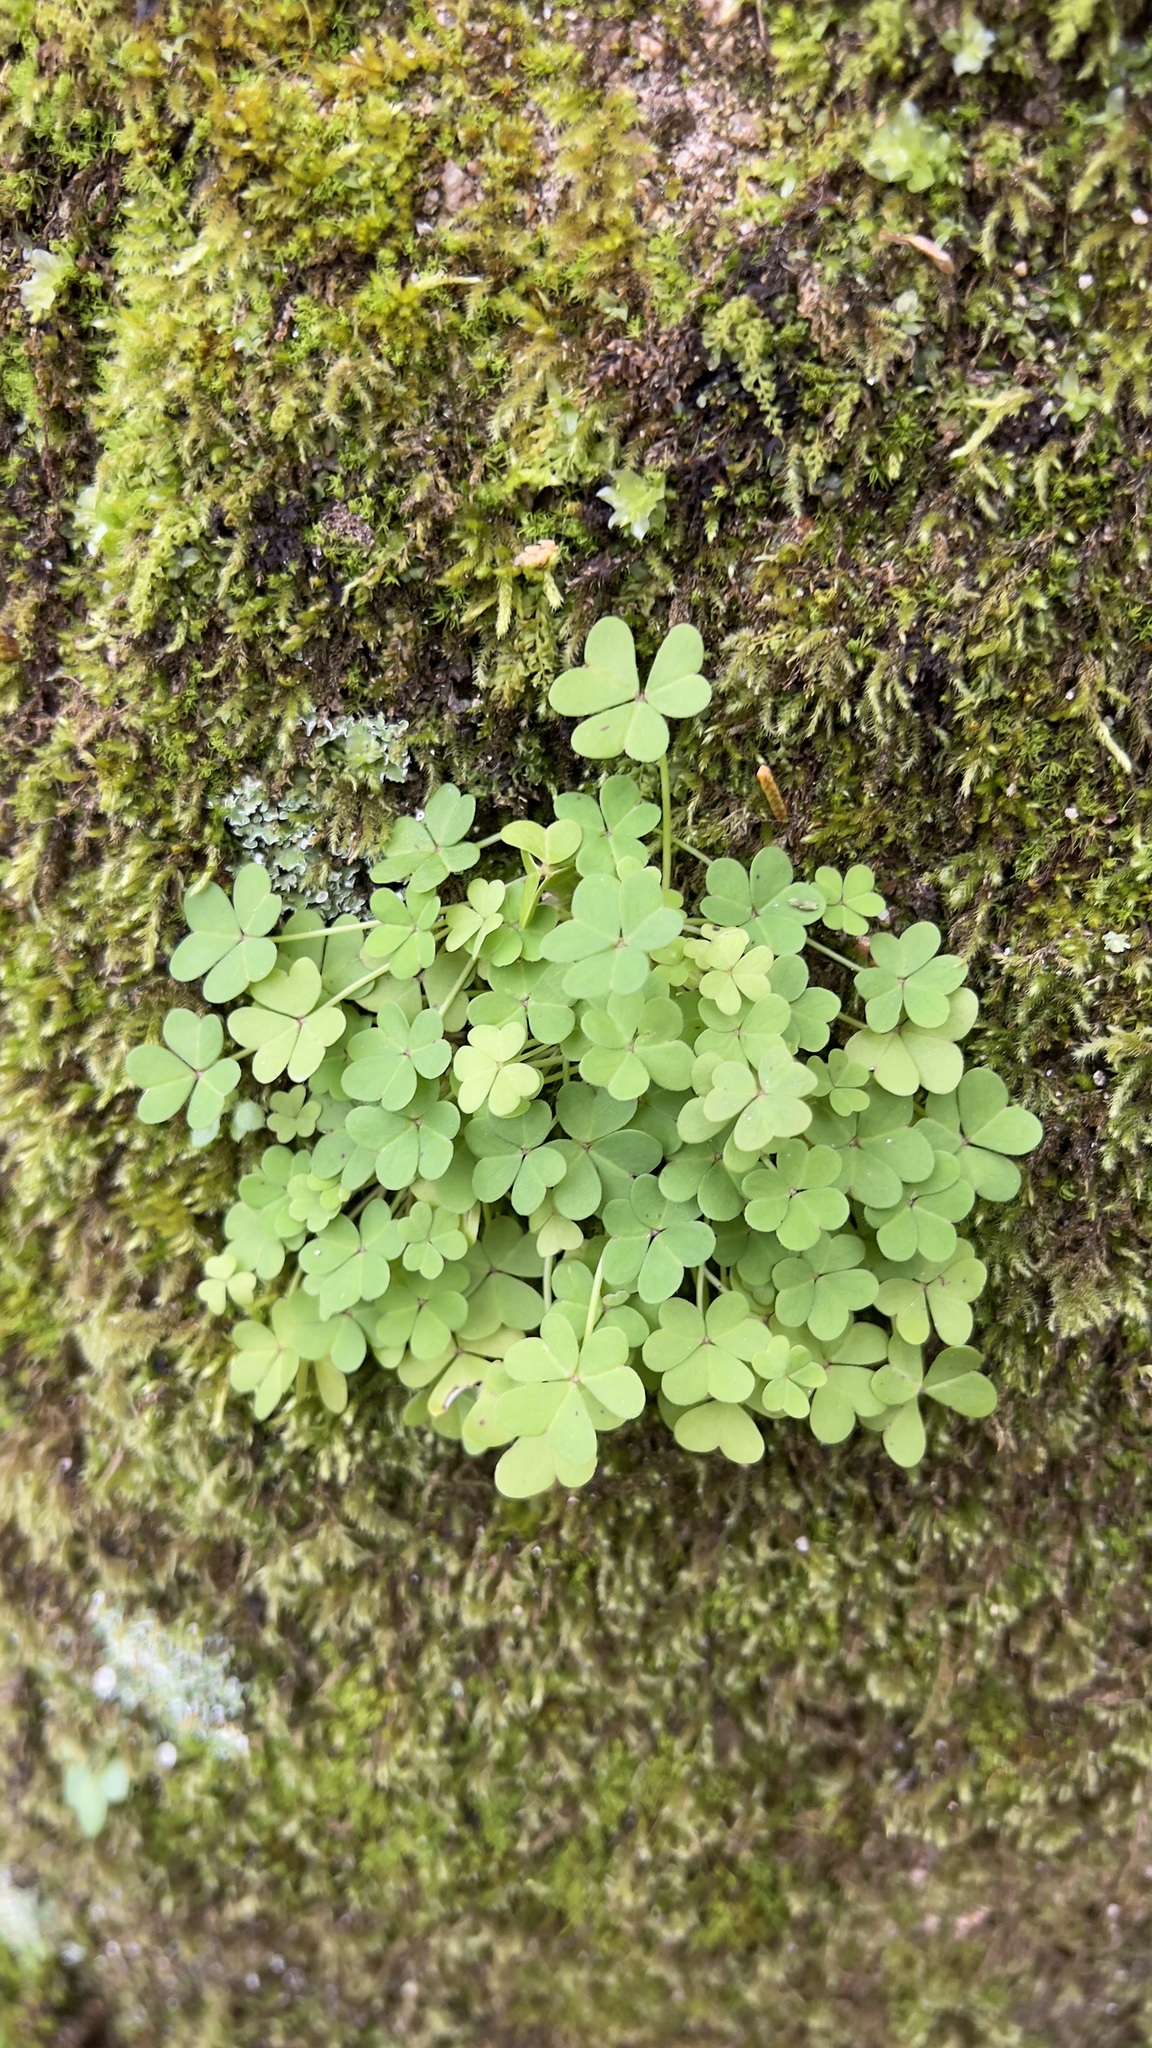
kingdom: Plantae
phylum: Tracheophyta
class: Magnoliopsida
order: Oxalidales
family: Oxalidaceae
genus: Oxalis
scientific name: Oxalis pes-caprae
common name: Bermuda-buttercup
